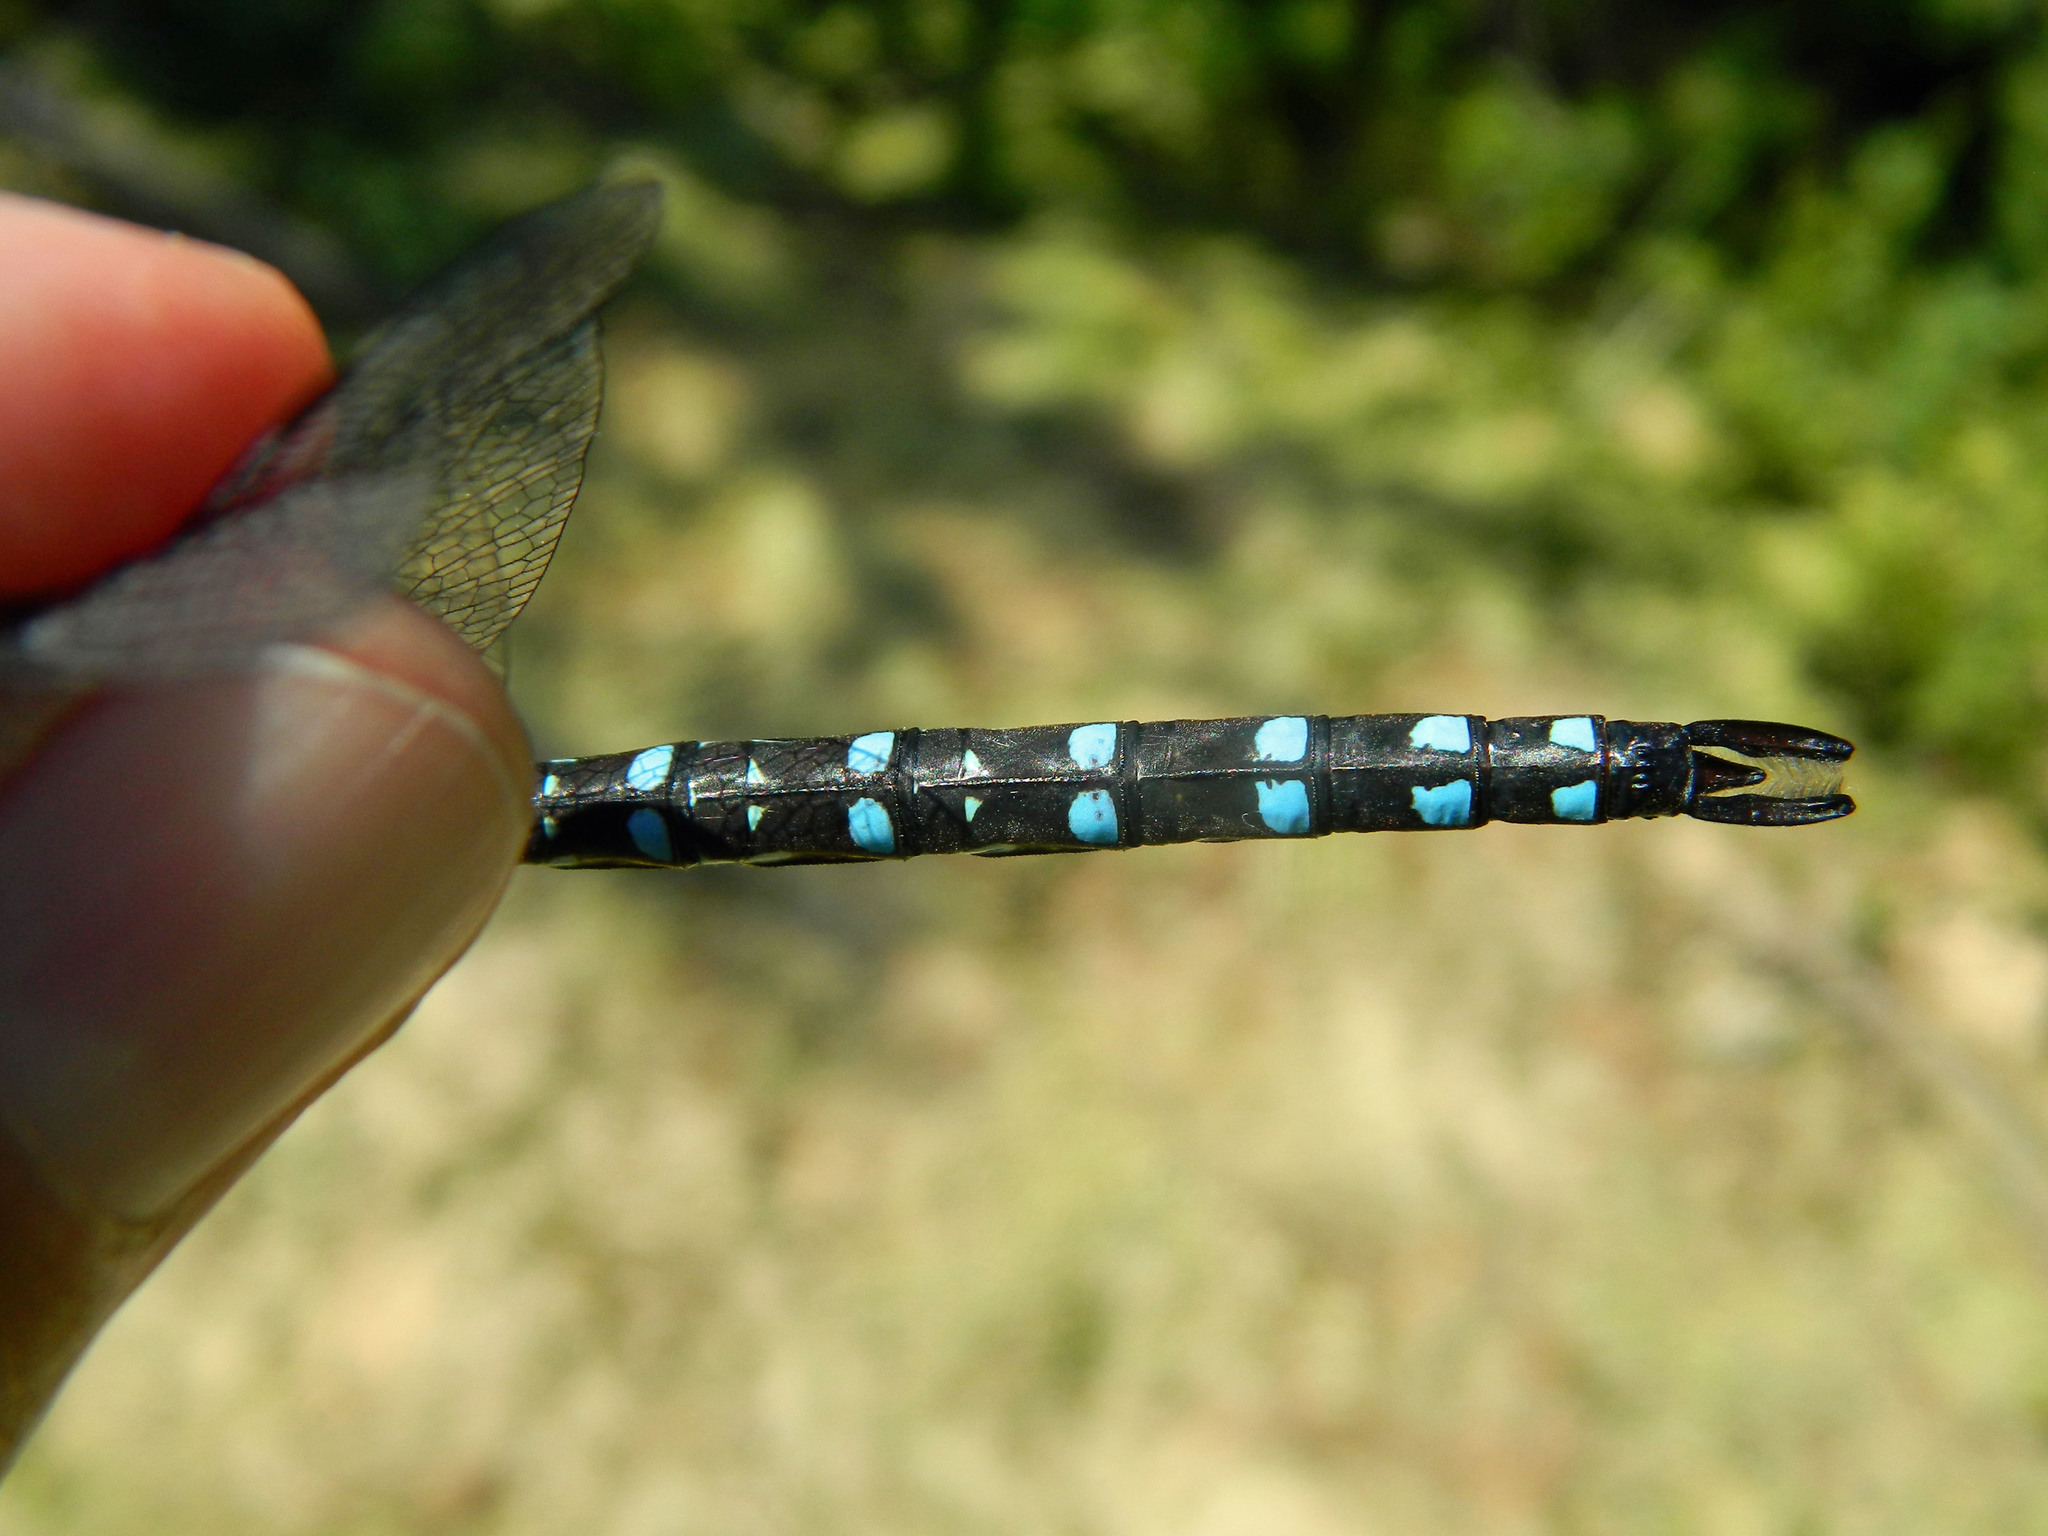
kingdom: Animalia
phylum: Arthropoda
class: Insecta
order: Odonata
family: Aeshnidae
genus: Aeshna
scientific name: Aeshna tuberculifera
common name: Aeschne à tubercules
